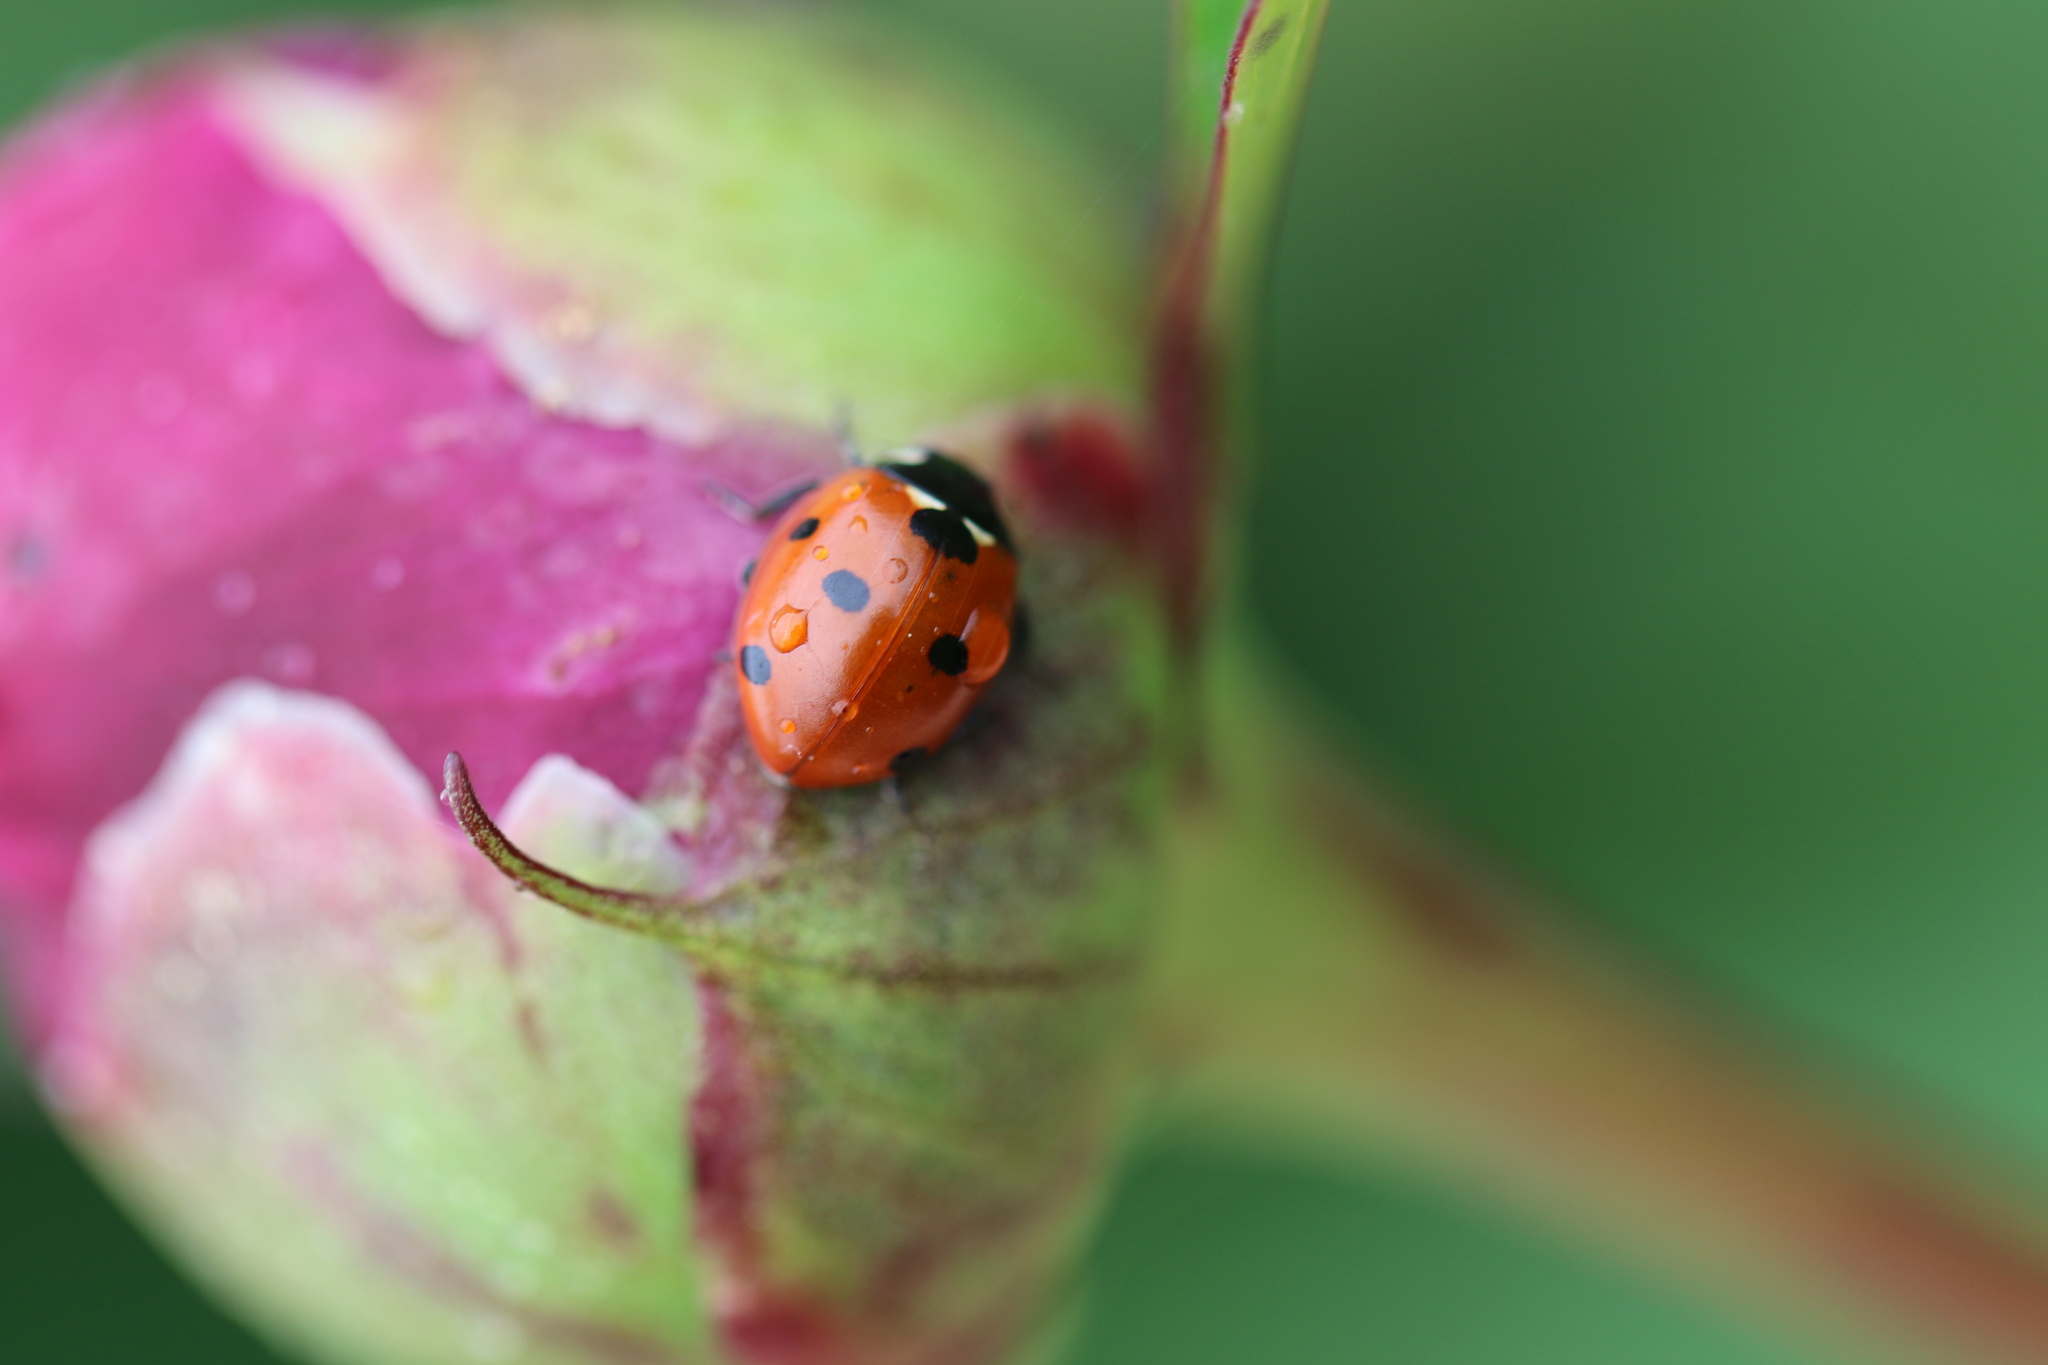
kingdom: Animalia
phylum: Arthropoda
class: Insecta
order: Coleoptera
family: Coccinellidae
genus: Coccinella
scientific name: Coccinella septempunctata
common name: Sevenspotted lady beetle
